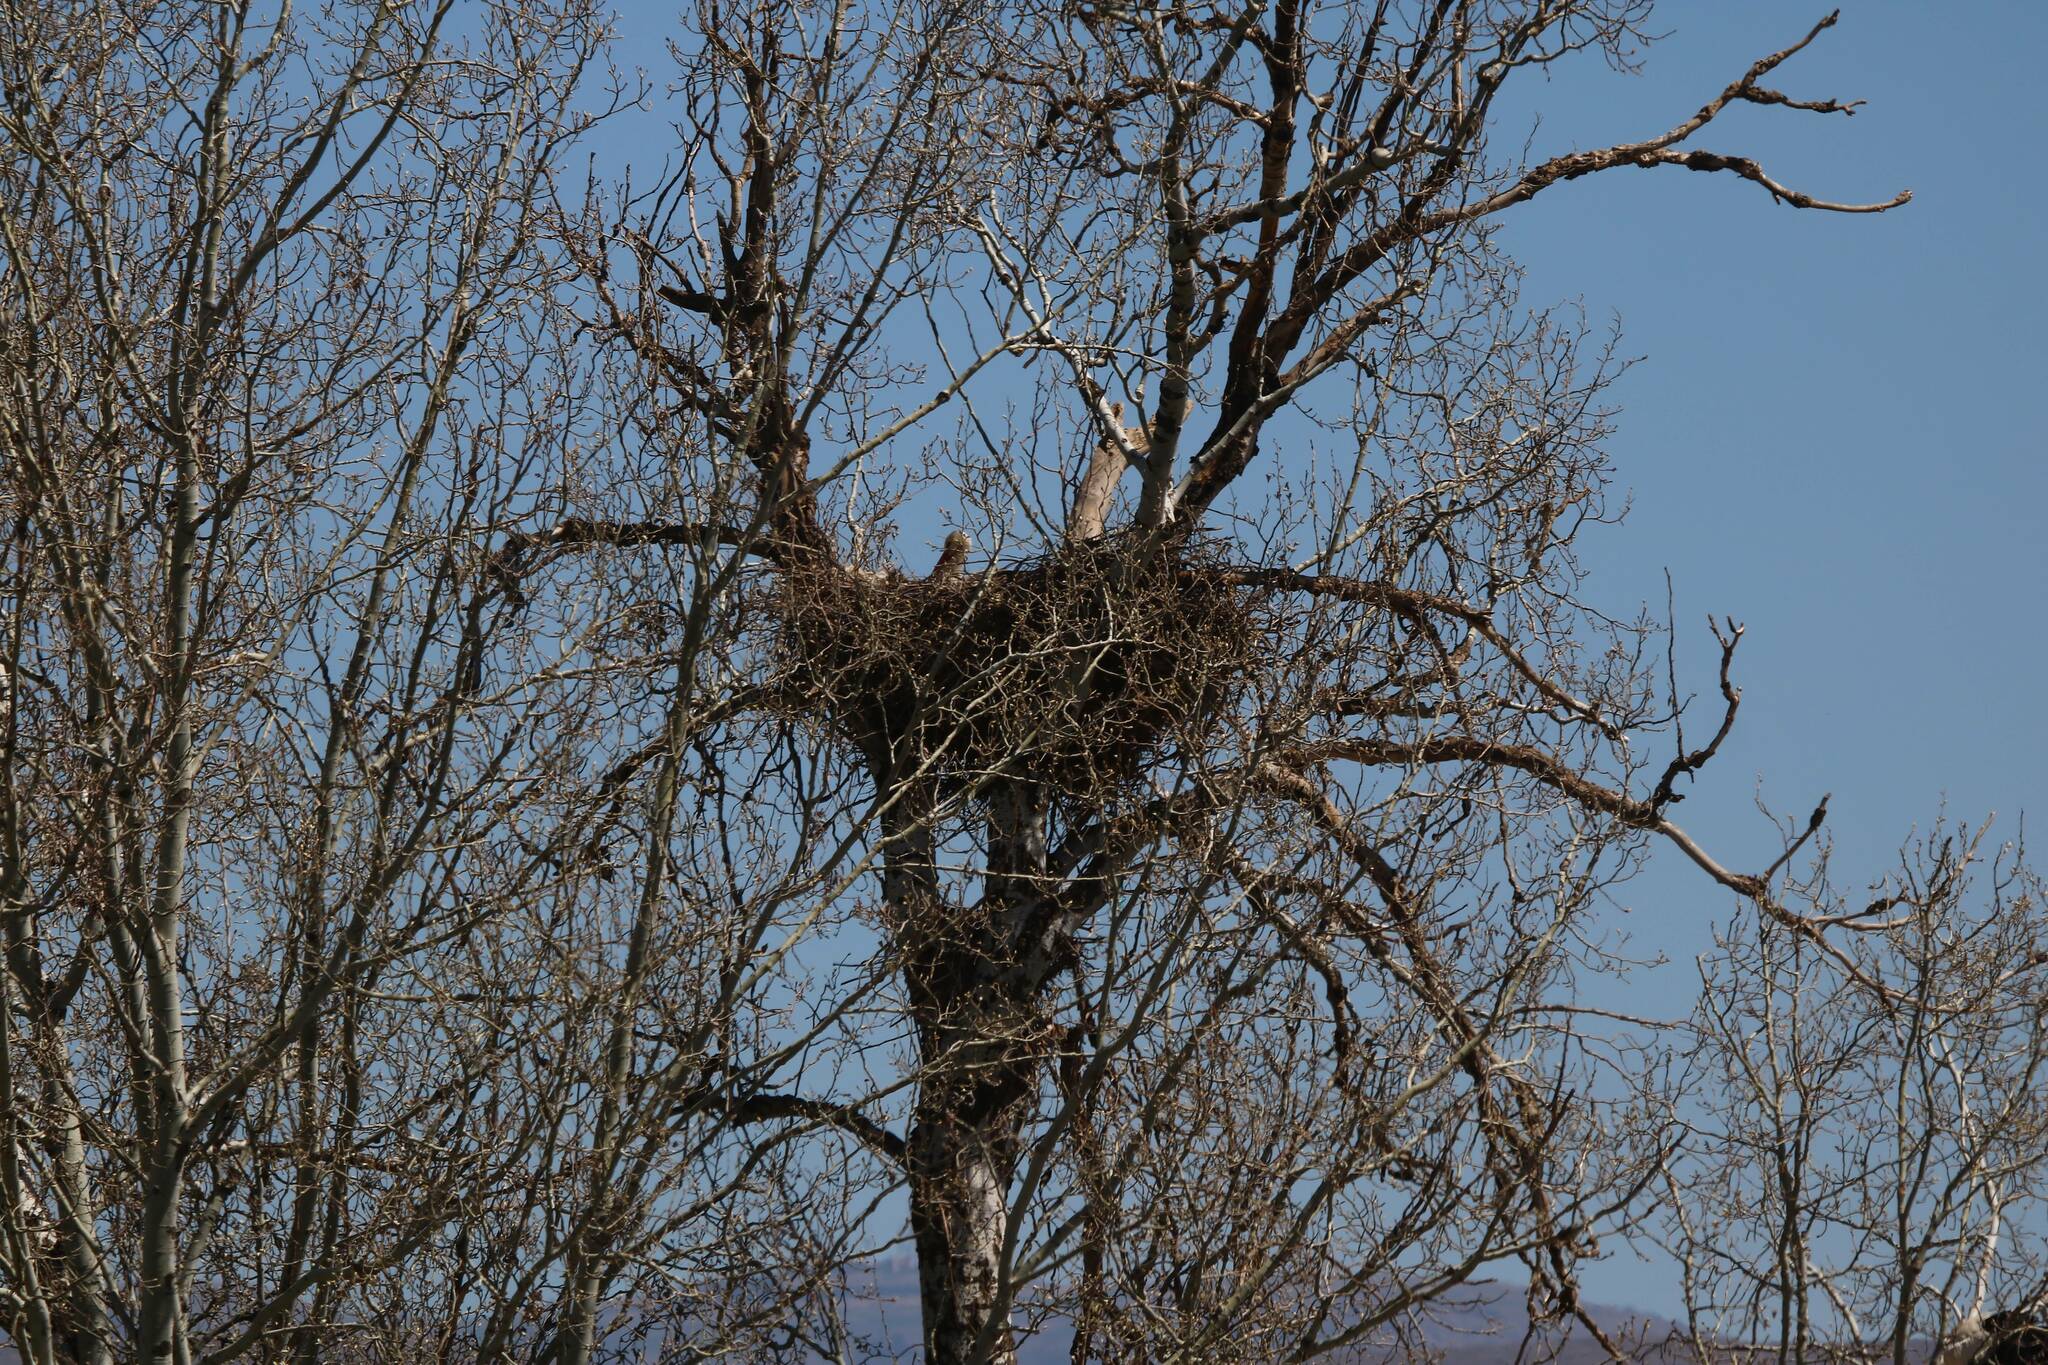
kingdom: Animalia
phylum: Chordata
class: Aves
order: Ciconiiformes
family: Ciconiidae
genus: Ciconia
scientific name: Ciconia ciconia
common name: White stork
